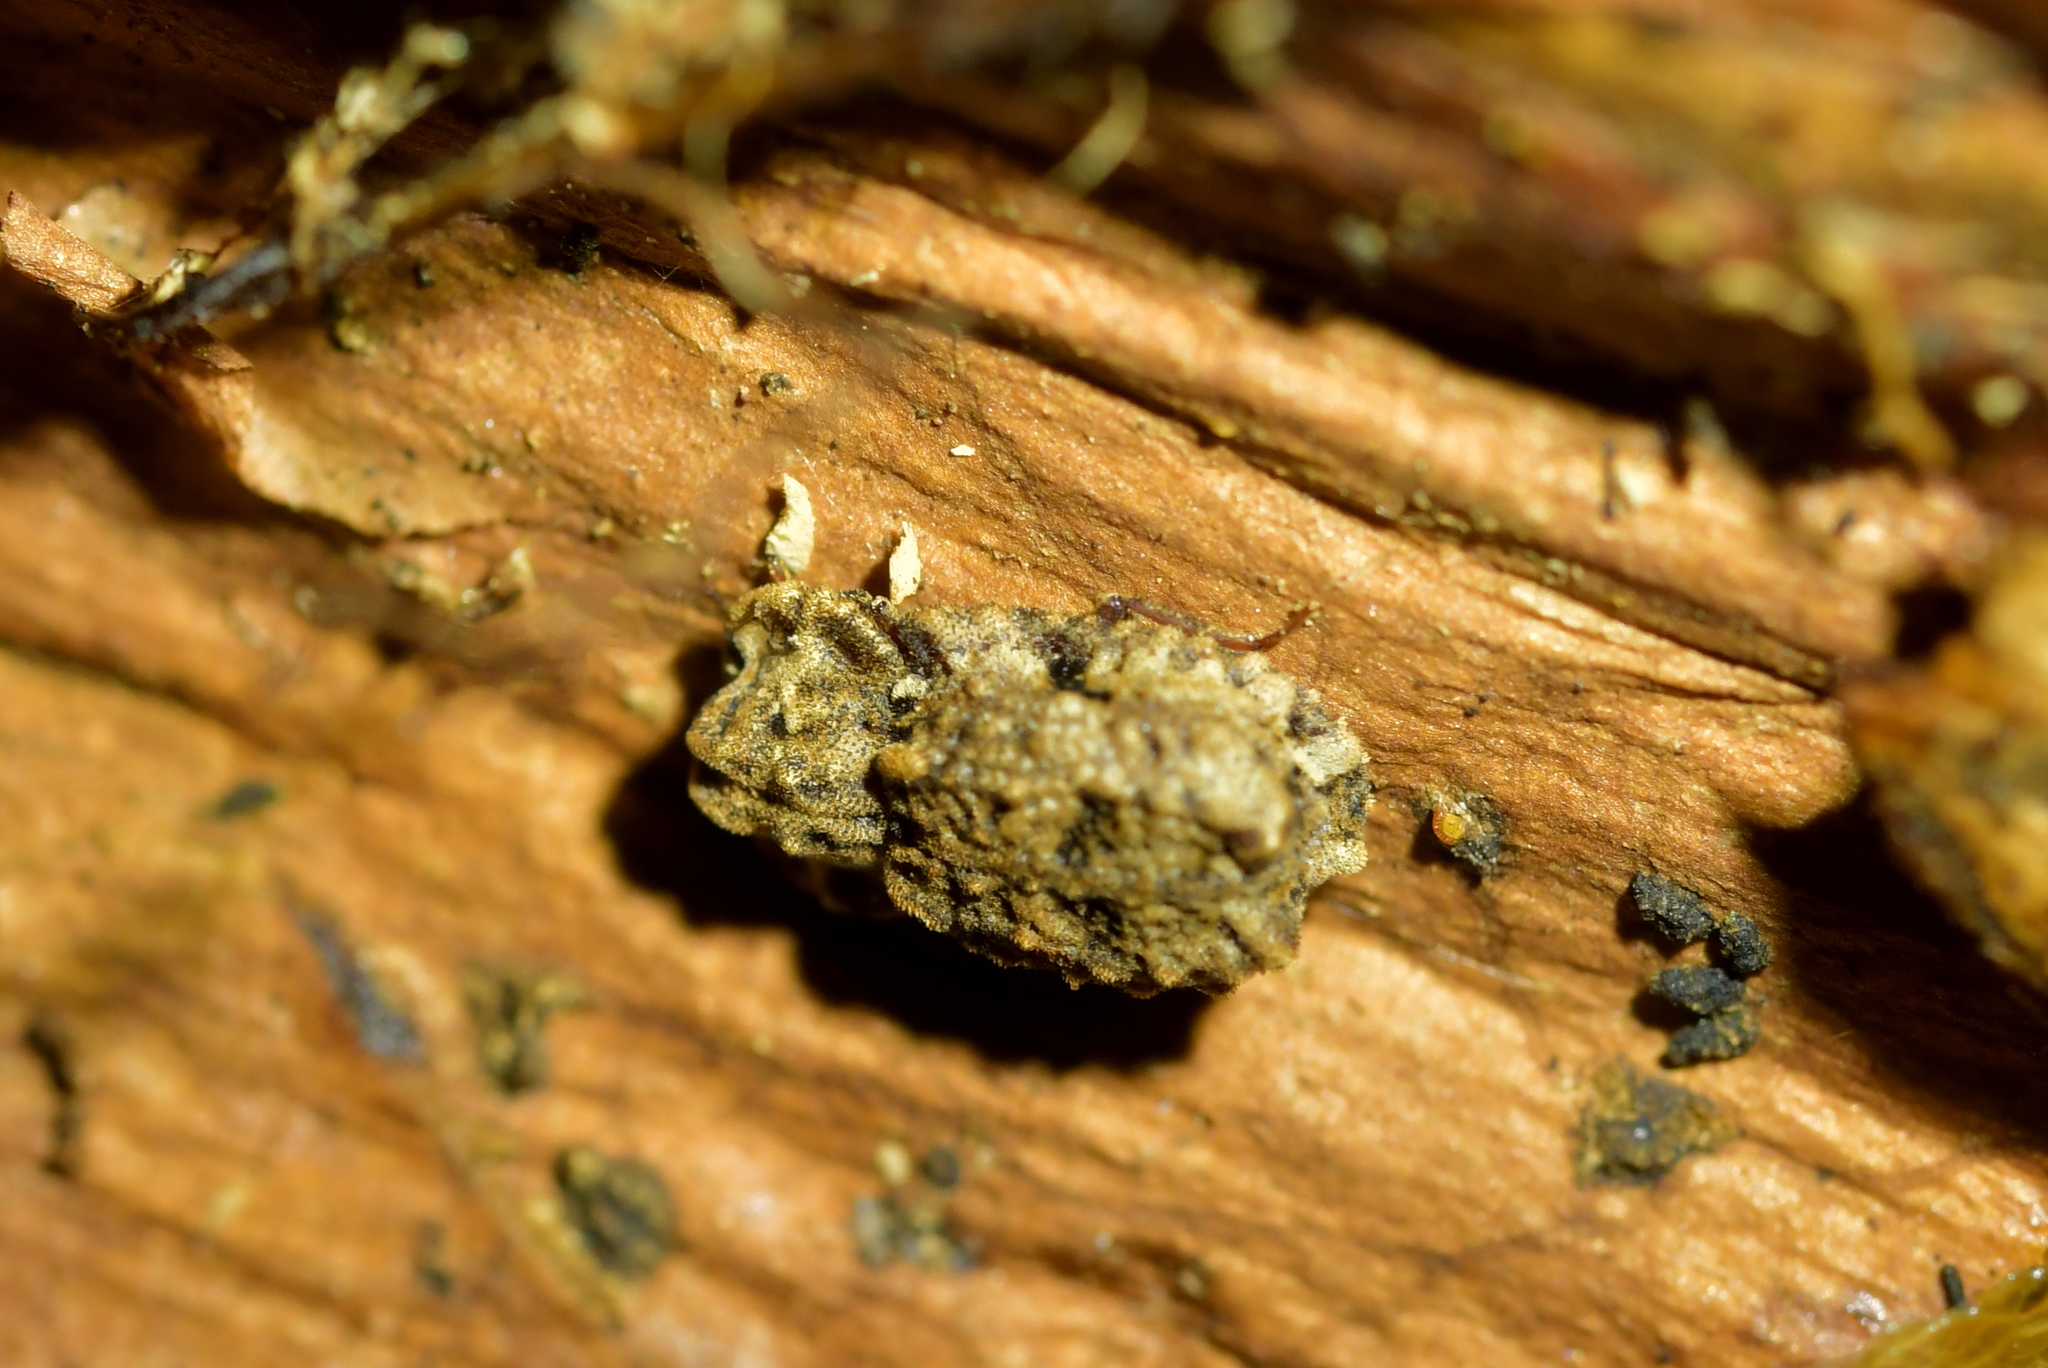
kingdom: Animalia
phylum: Arthropoda
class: Insecta
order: Coleoptera
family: Zopheridae
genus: Pristoderus
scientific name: Pristoderus
